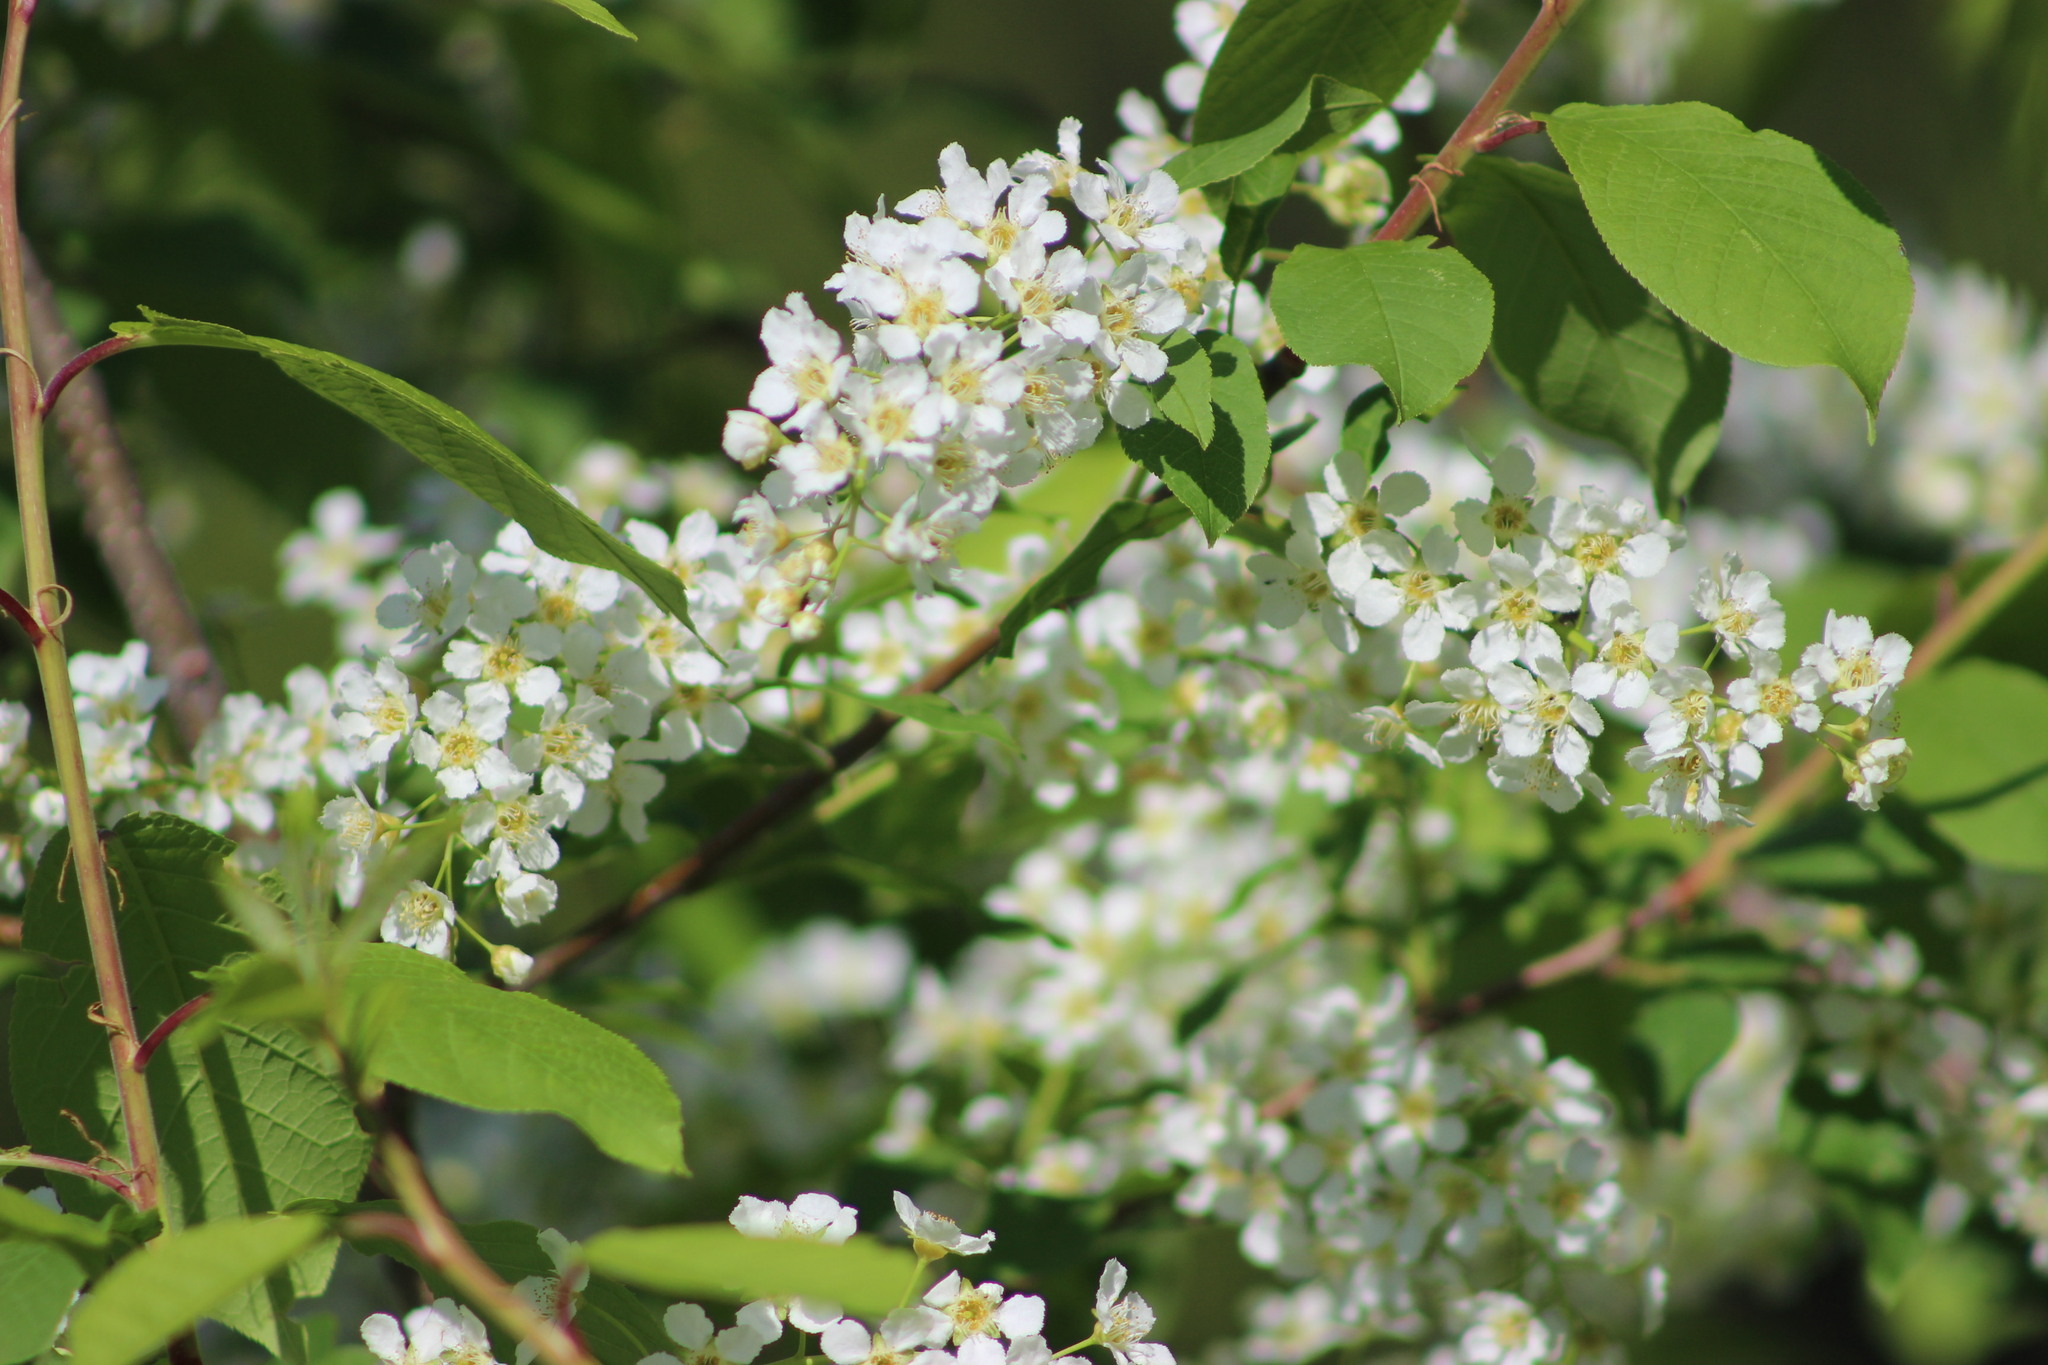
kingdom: Plantae
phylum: Tracheophyta
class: Magnoliopsida
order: Rosales
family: Rosaceae
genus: Prunus
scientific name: Prunus padus
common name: Bird cherry
